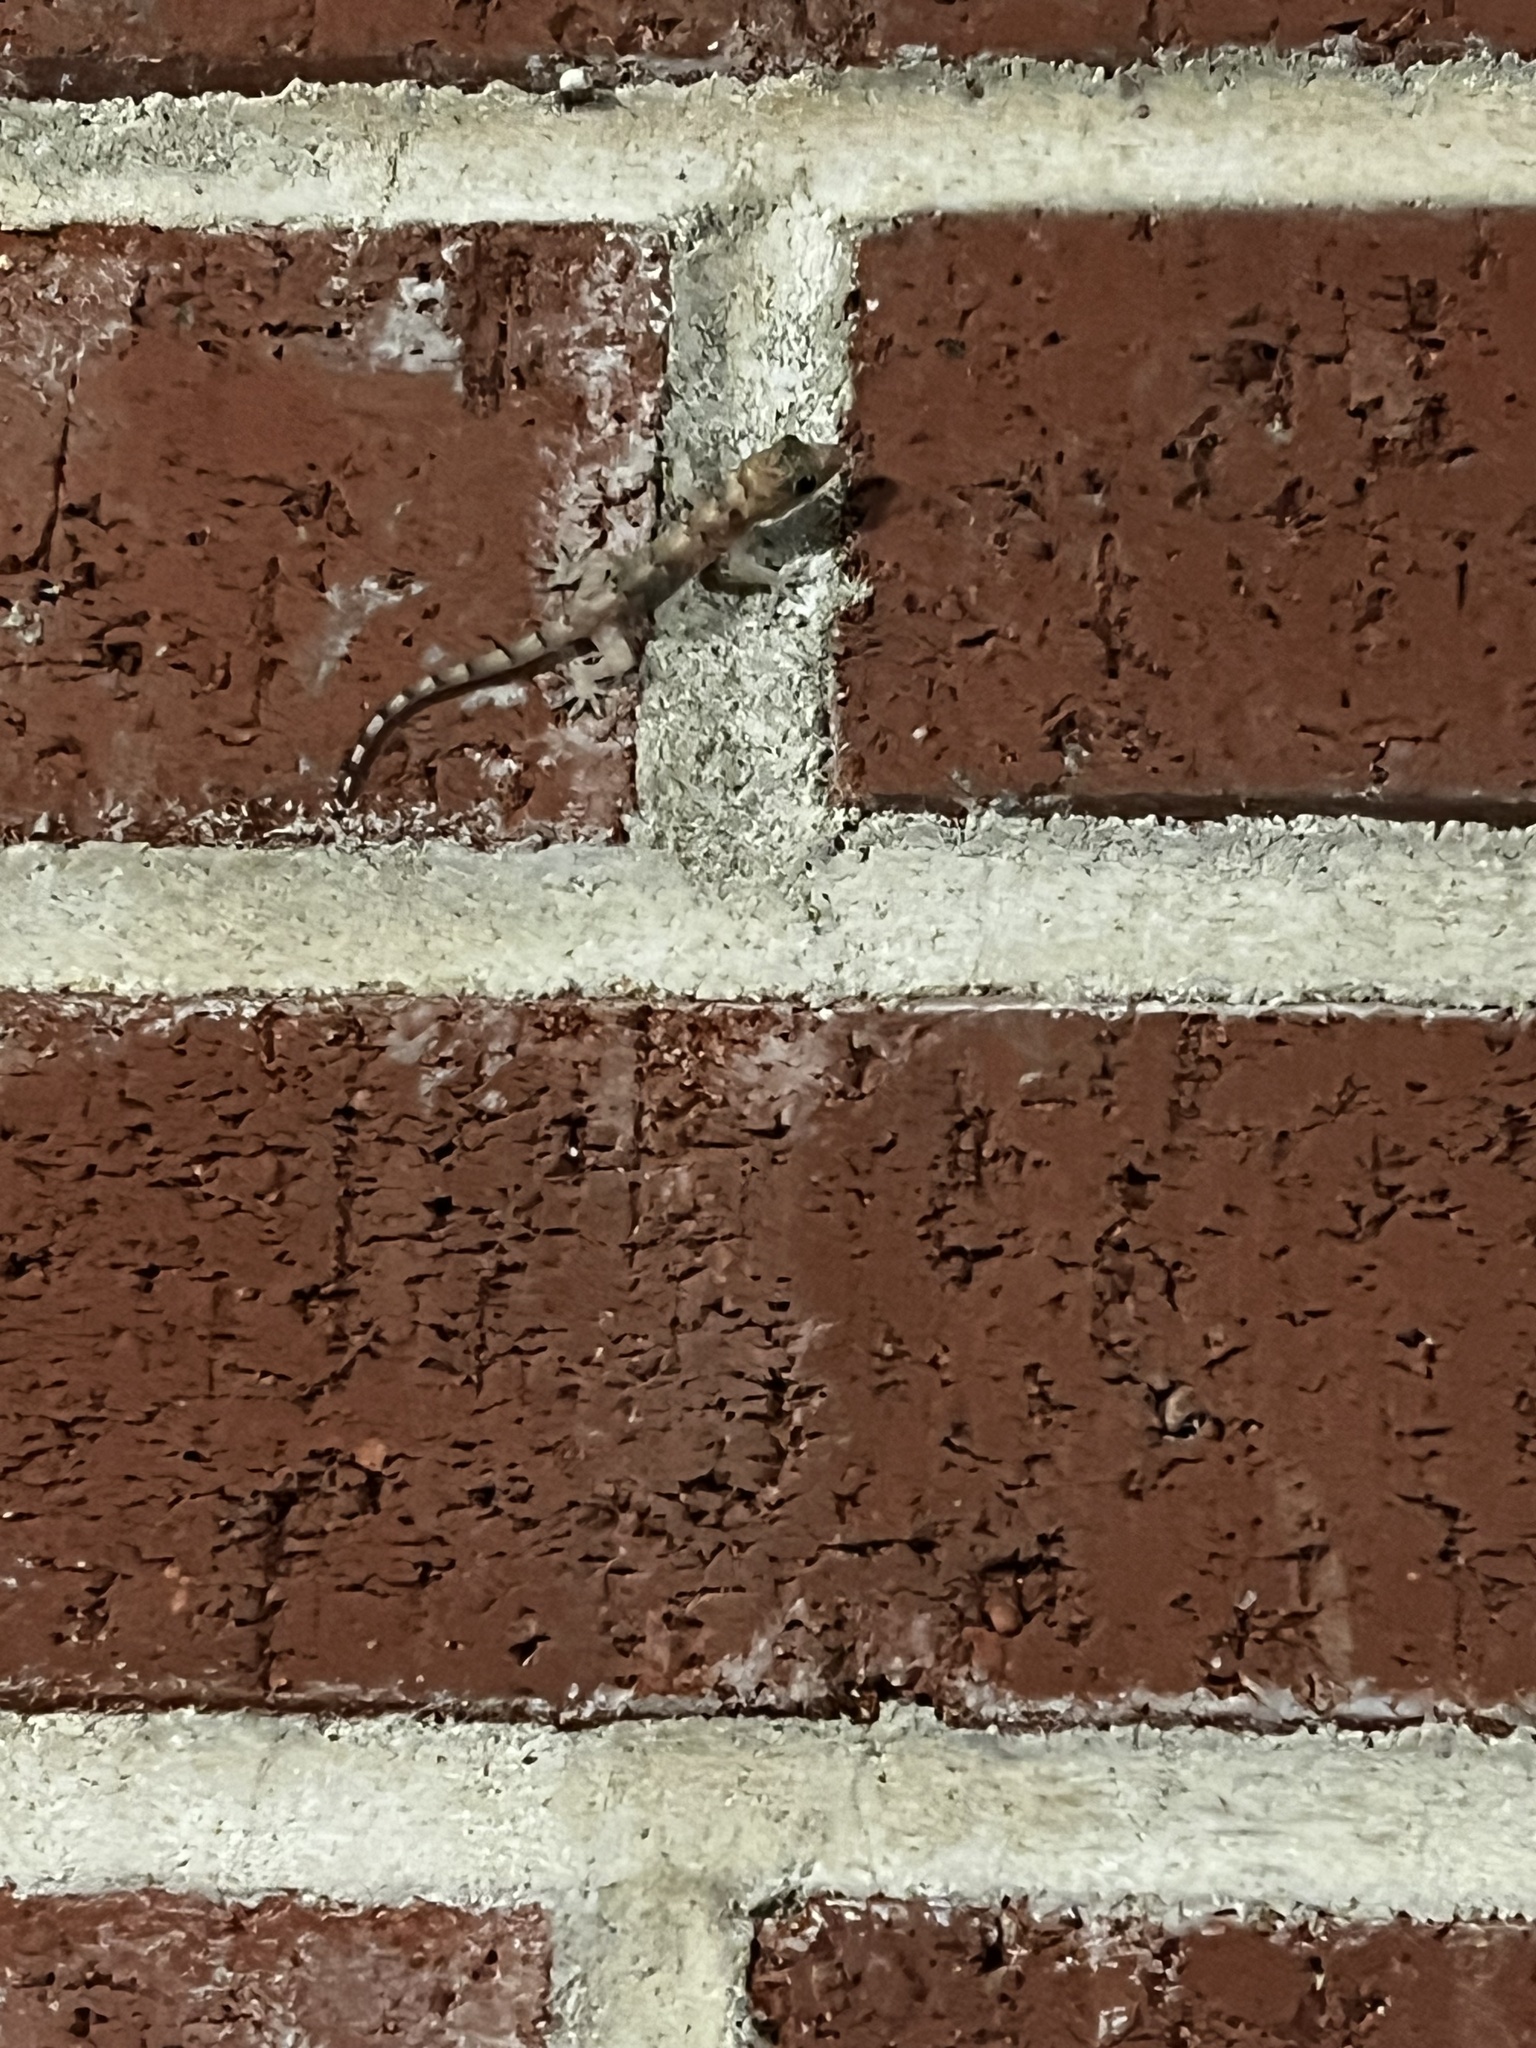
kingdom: Animalia
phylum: Chordata
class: Squamata
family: Gekkonidae
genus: Hemidactylus
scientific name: Hemidactylus mabouia
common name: House gecko
